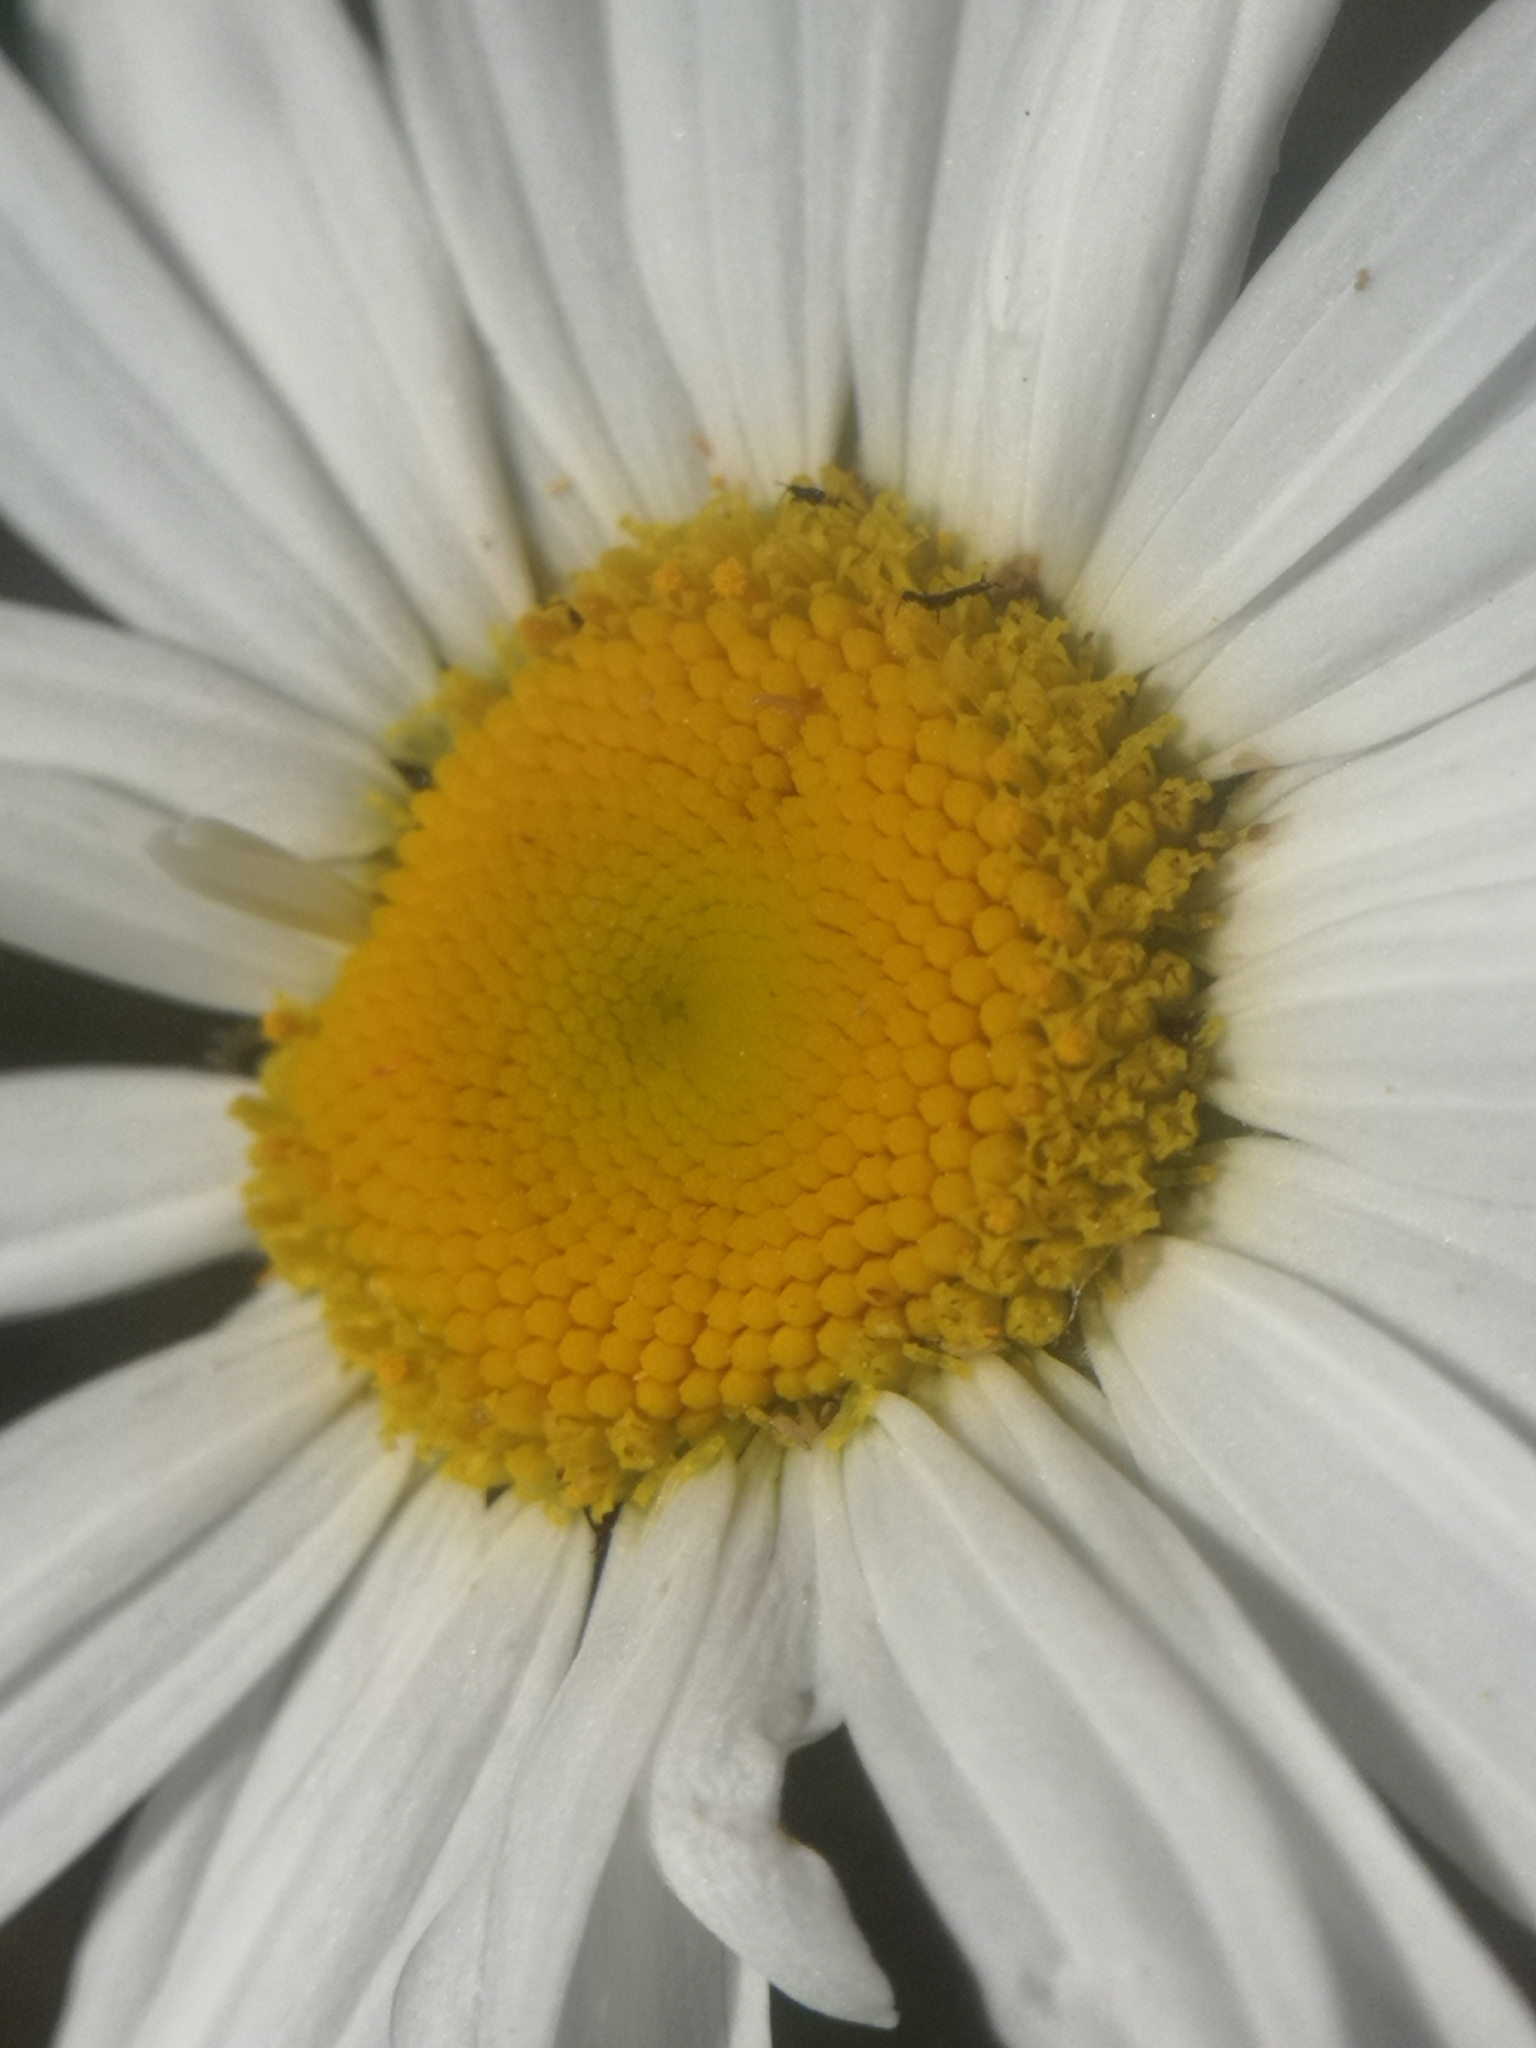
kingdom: Plantae
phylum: Tracheophyta
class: Magnoliopsida
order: Asterales
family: Asteraceae
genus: Leucanthemum
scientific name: Leucanthemum vulgare
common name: Oxeye daisy
